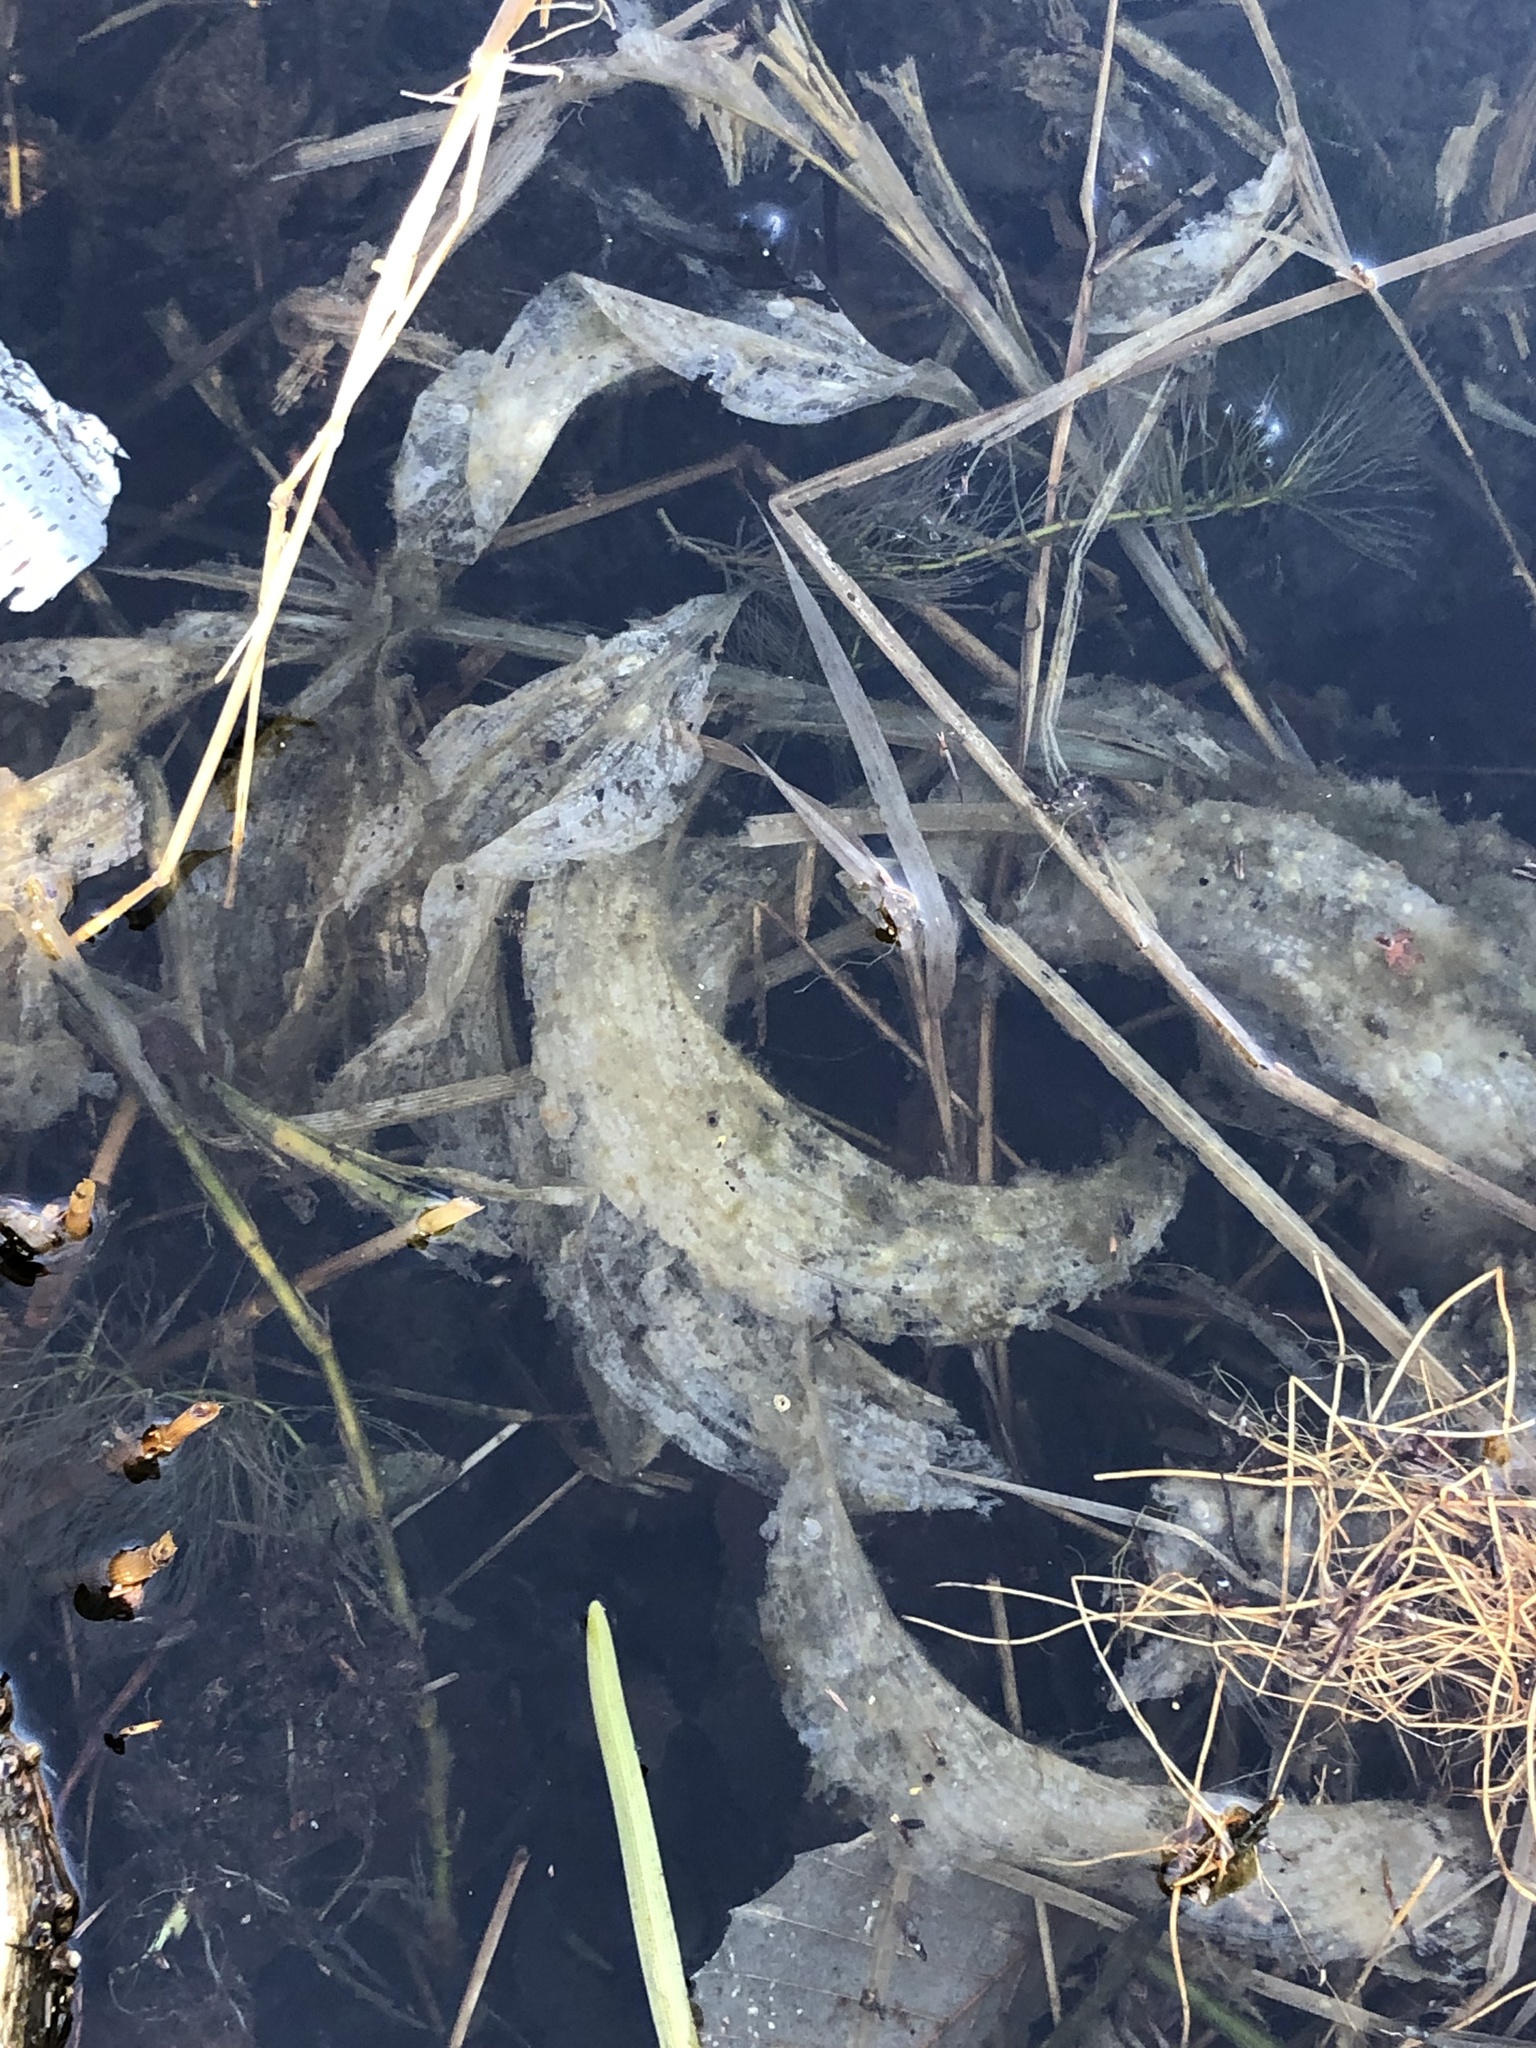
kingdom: Plantae
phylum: Tracheophyta
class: Liliopsida
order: Alismatales
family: Potamogetonaceae
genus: Potamogeton
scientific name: Potamogeton amplifolius
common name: Broad-leaved pondweed
